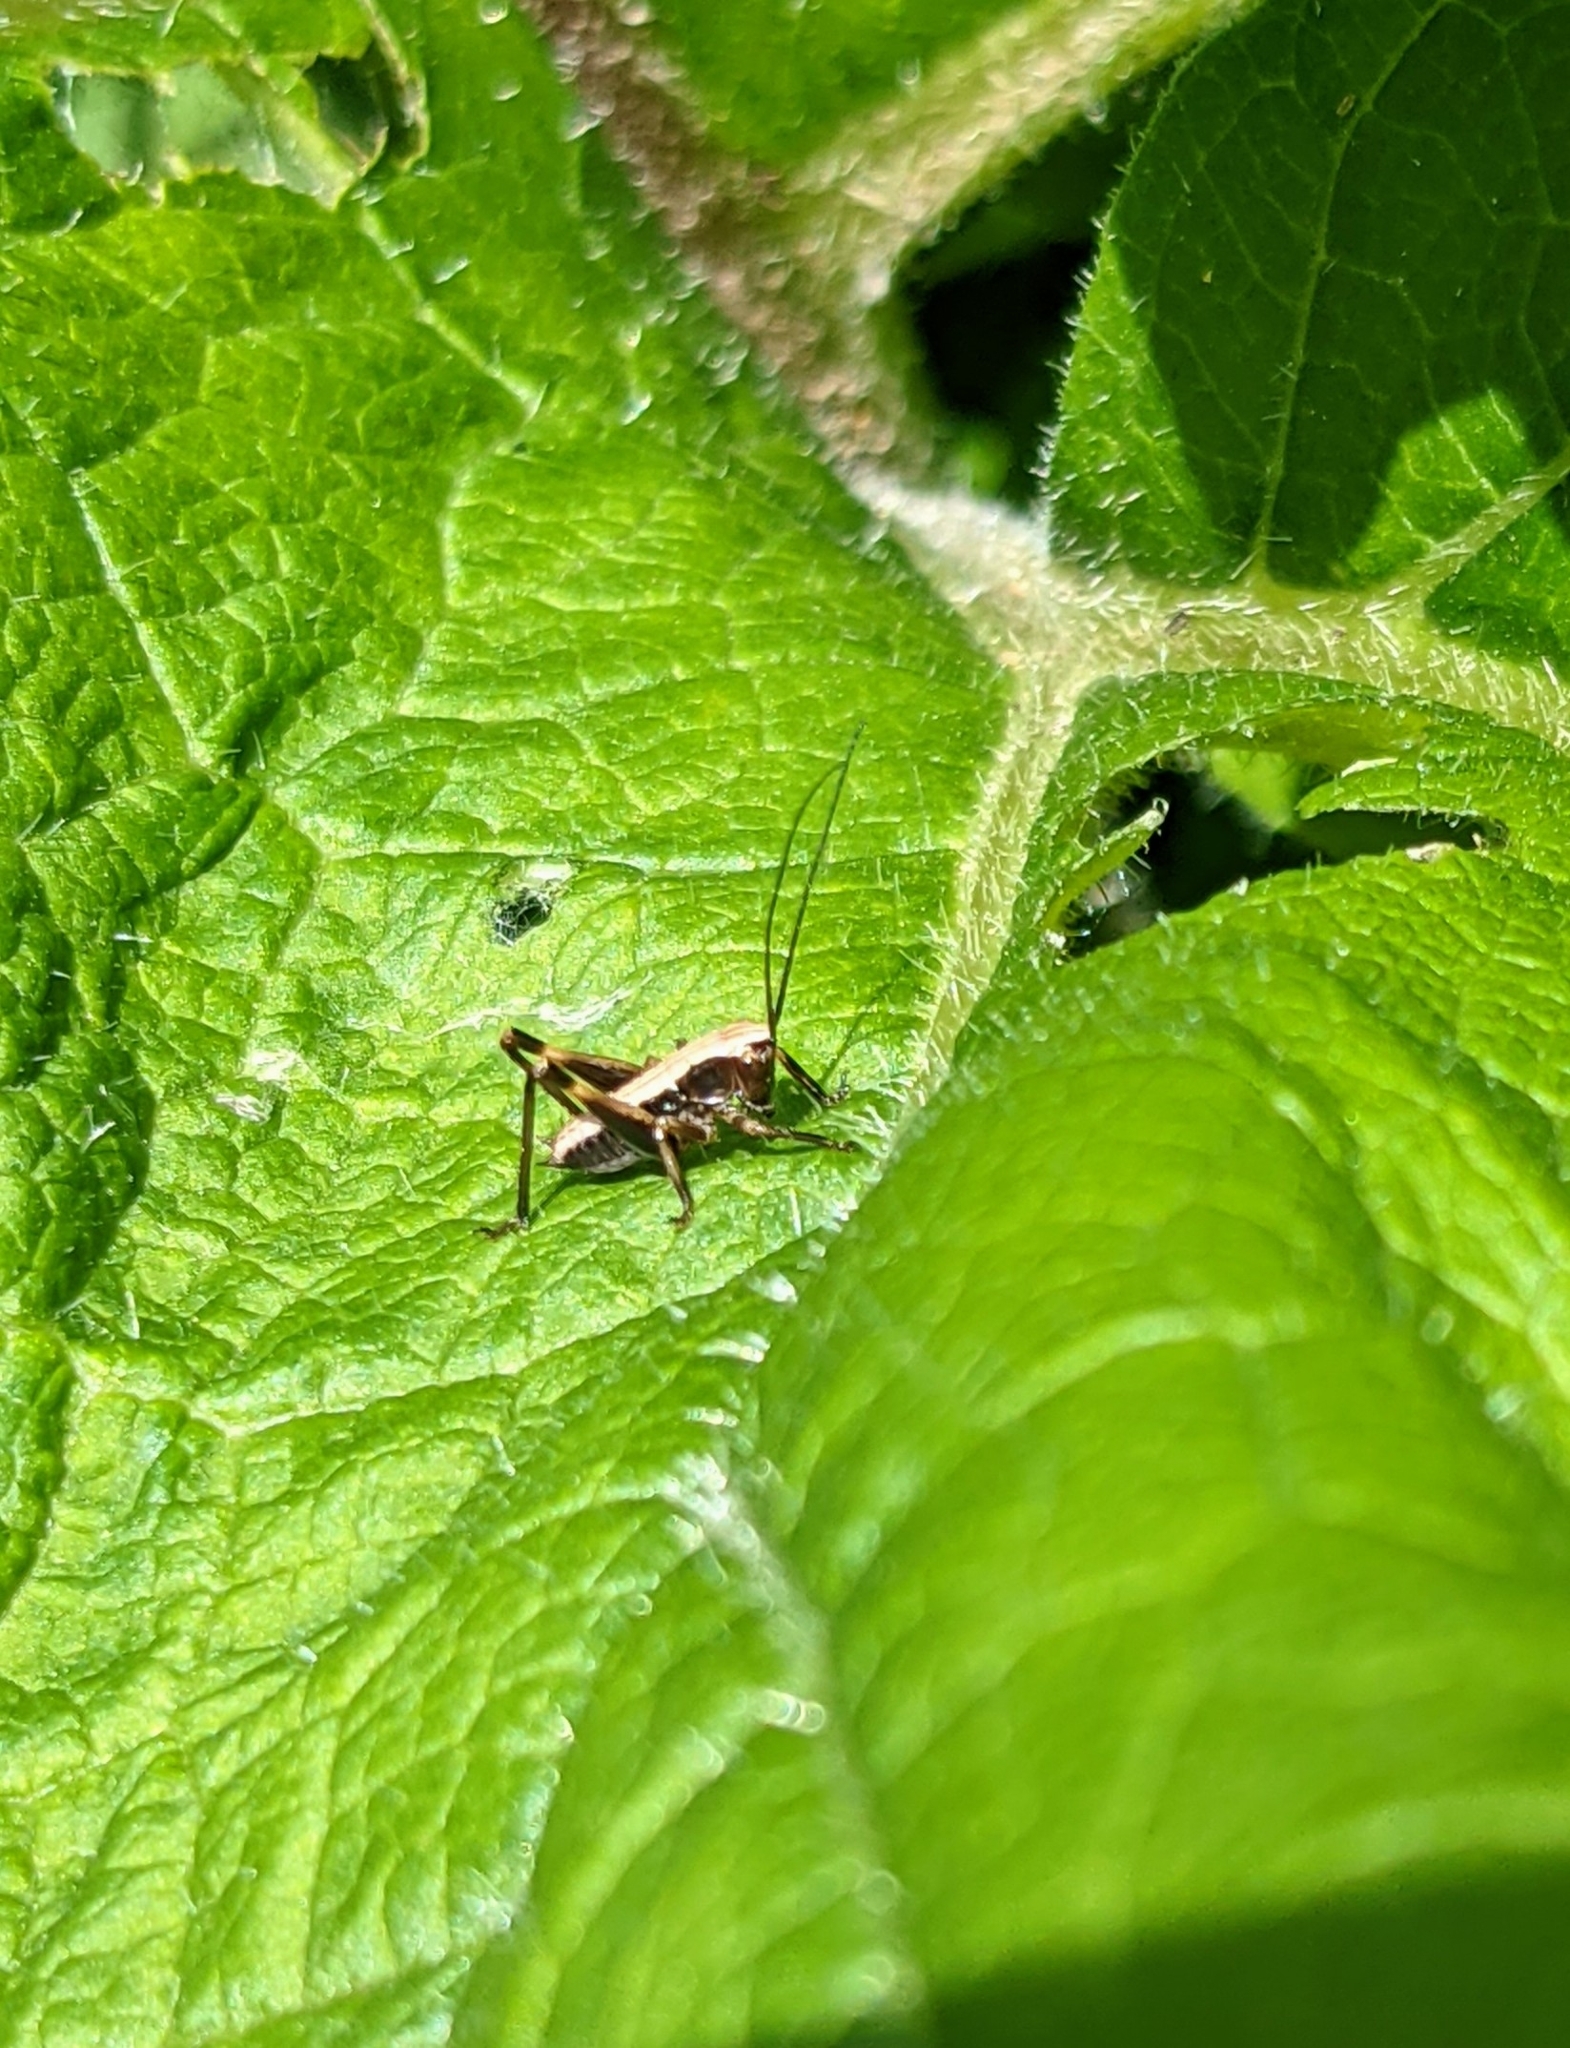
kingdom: Animalia
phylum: Arthropoda
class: Insecta
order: Orthoptera
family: Tettigoniidae
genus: Pholidoptera
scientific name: Pholidoptera griseoaptera
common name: Dark bush-cricket
